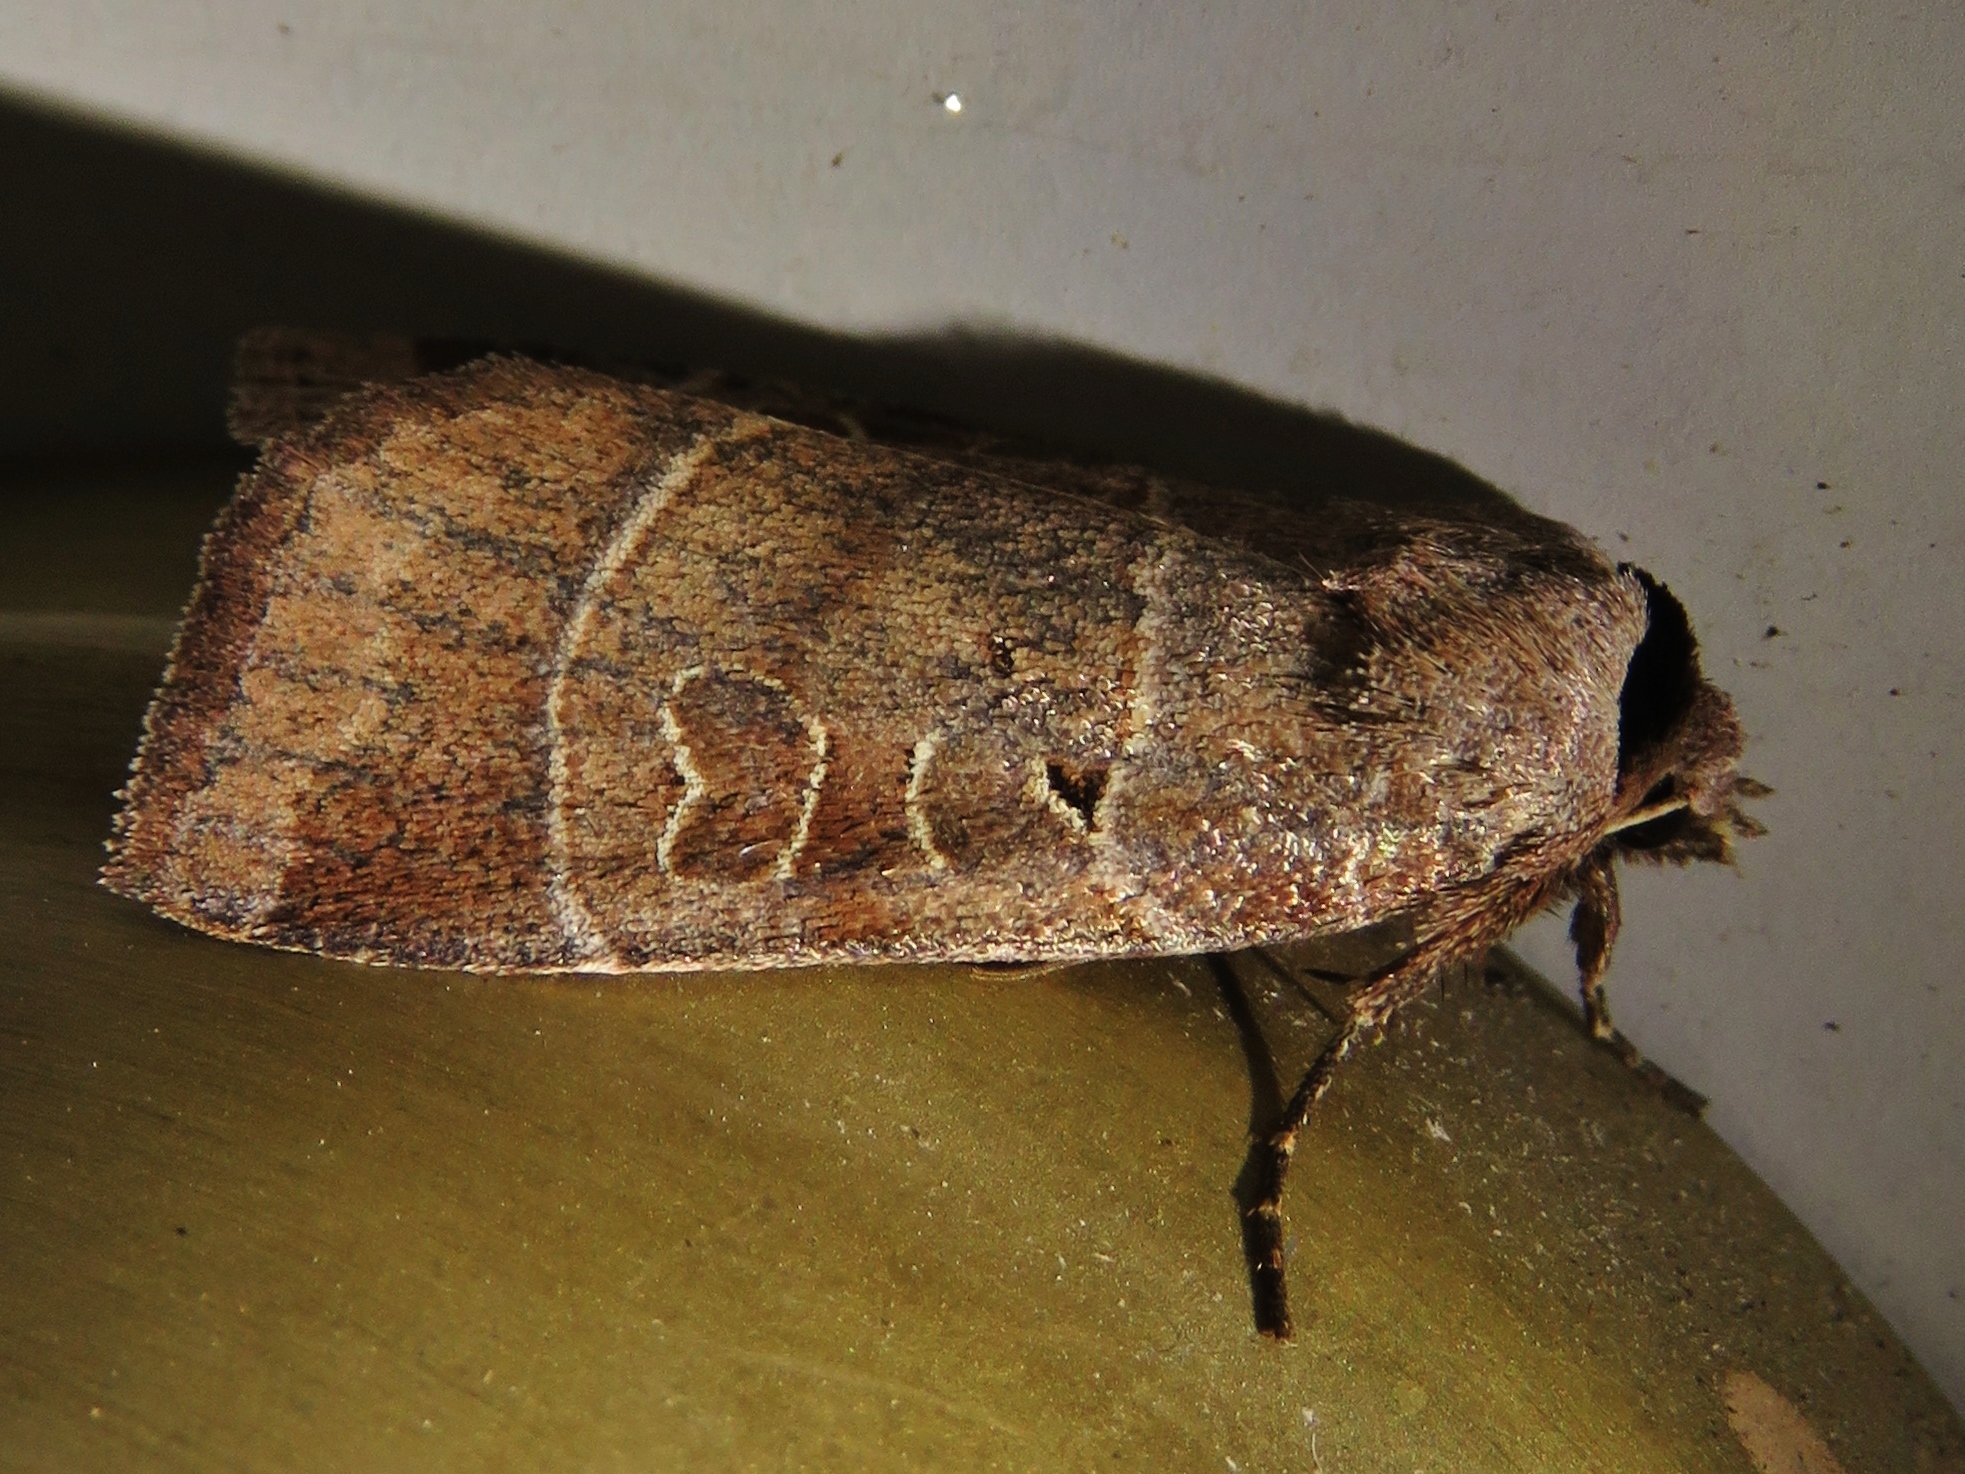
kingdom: Animalia
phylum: Arthropoda
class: Insecta
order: Lepidoptera
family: Noctuidae
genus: Agnorisma
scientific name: Agnorisma badinodis
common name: Pale-banded dart
